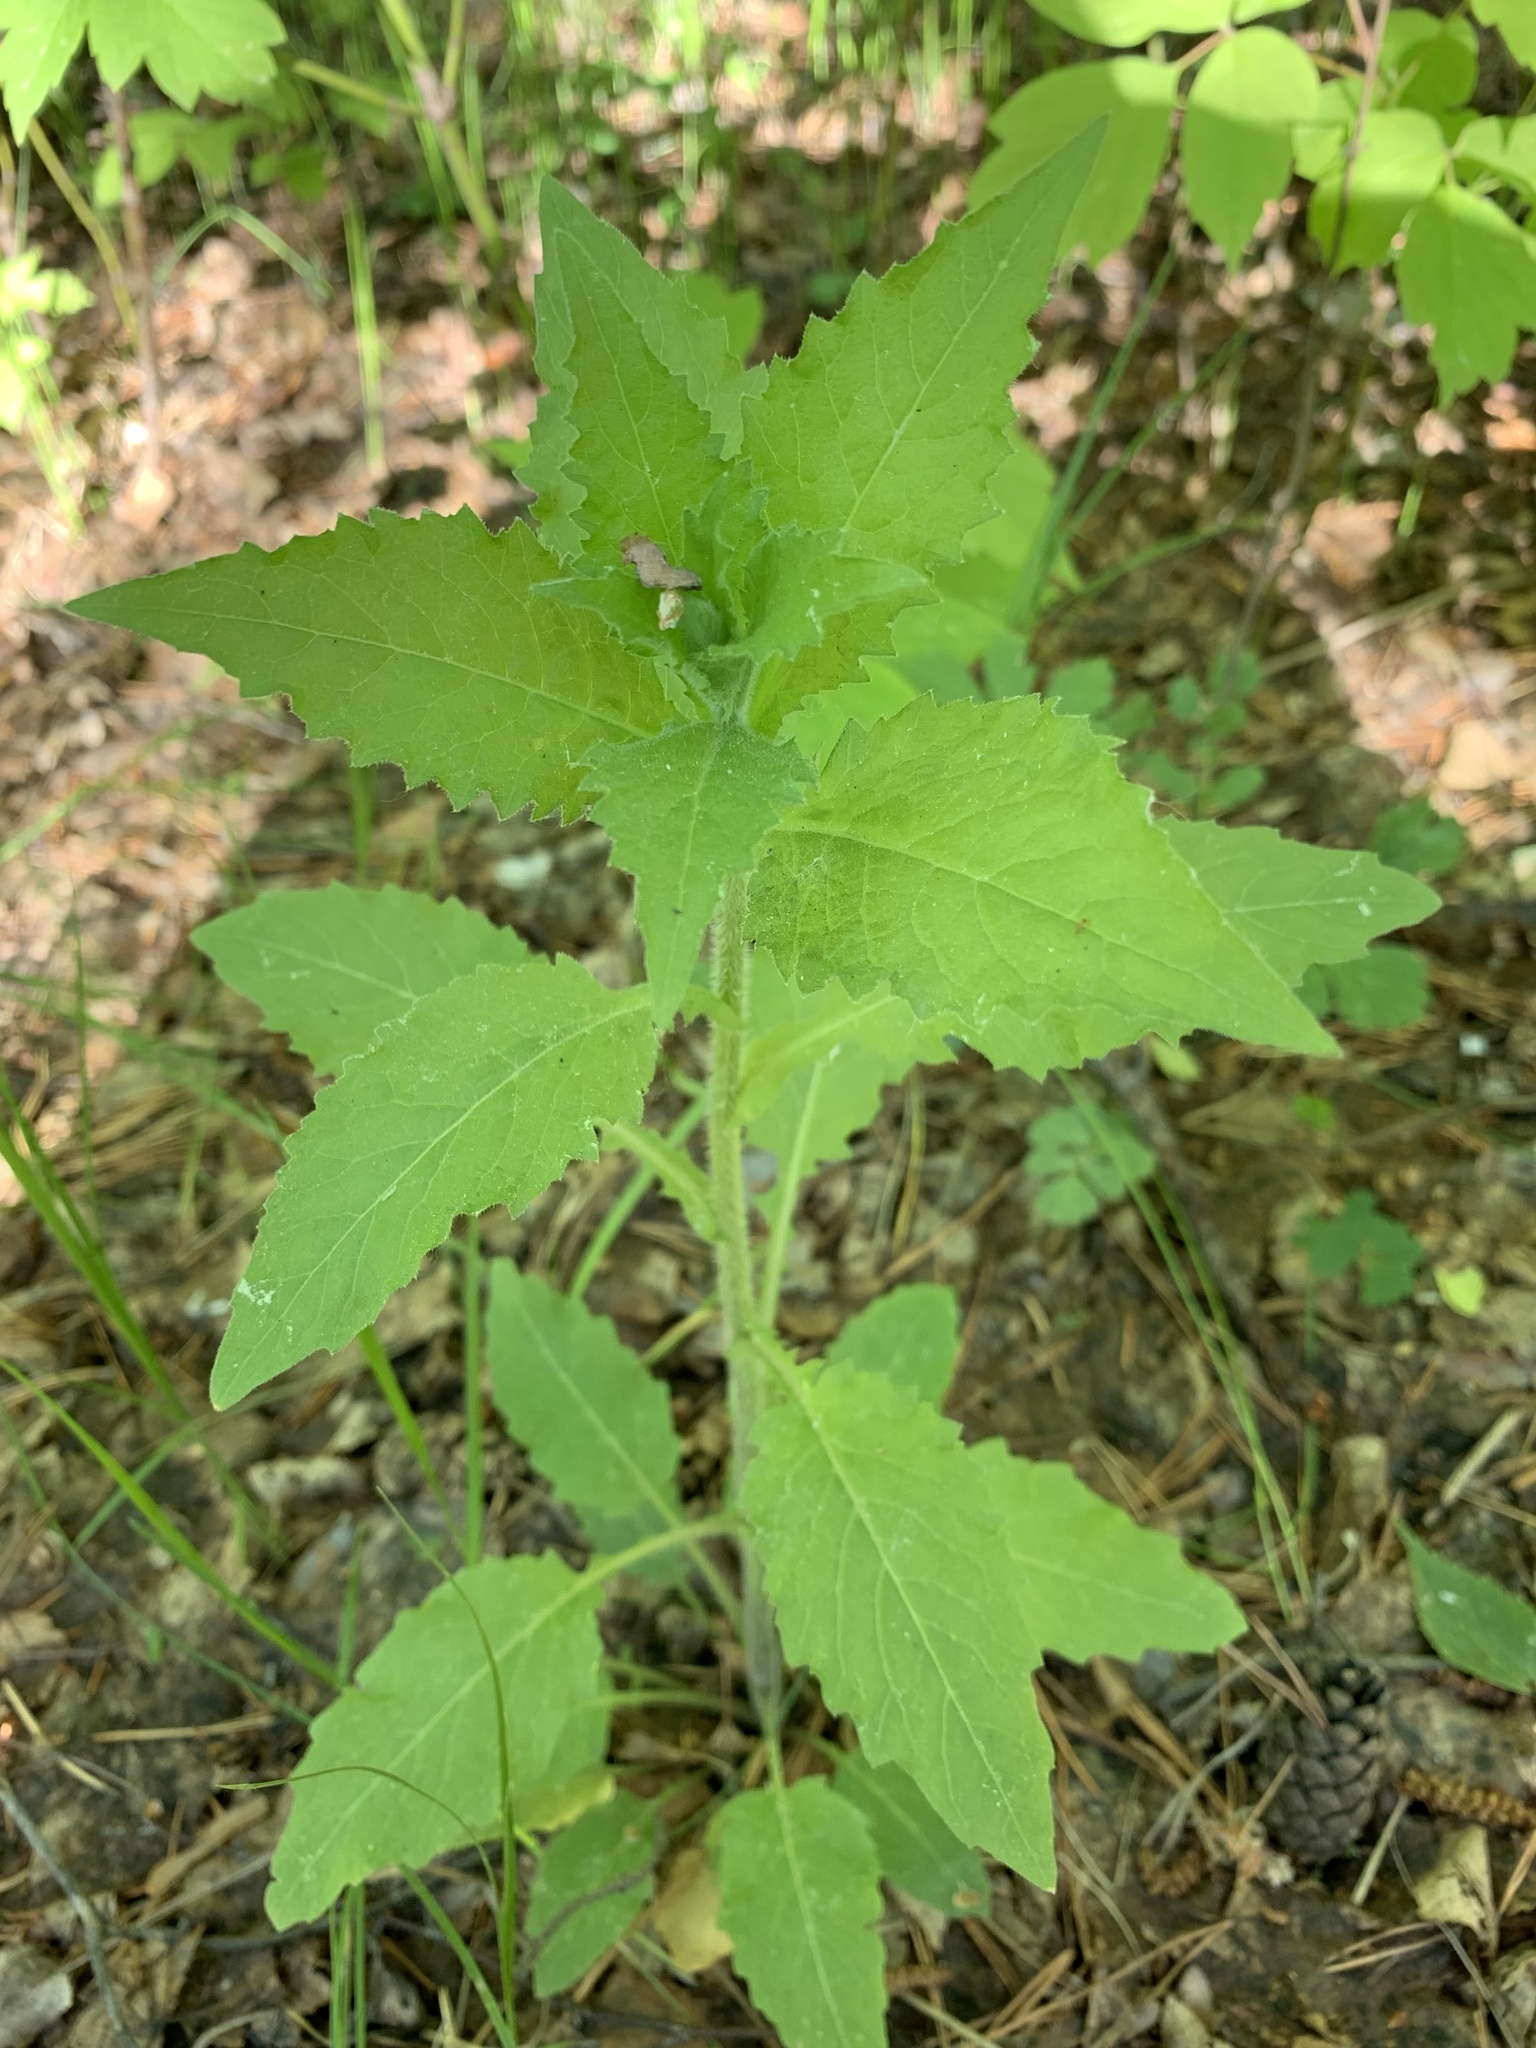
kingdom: Plantae
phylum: Tracheophyta
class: Magnoliopsida
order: Brassicales
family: Brassicaceae
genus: Catolobus
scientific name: Catolobus pendulus
